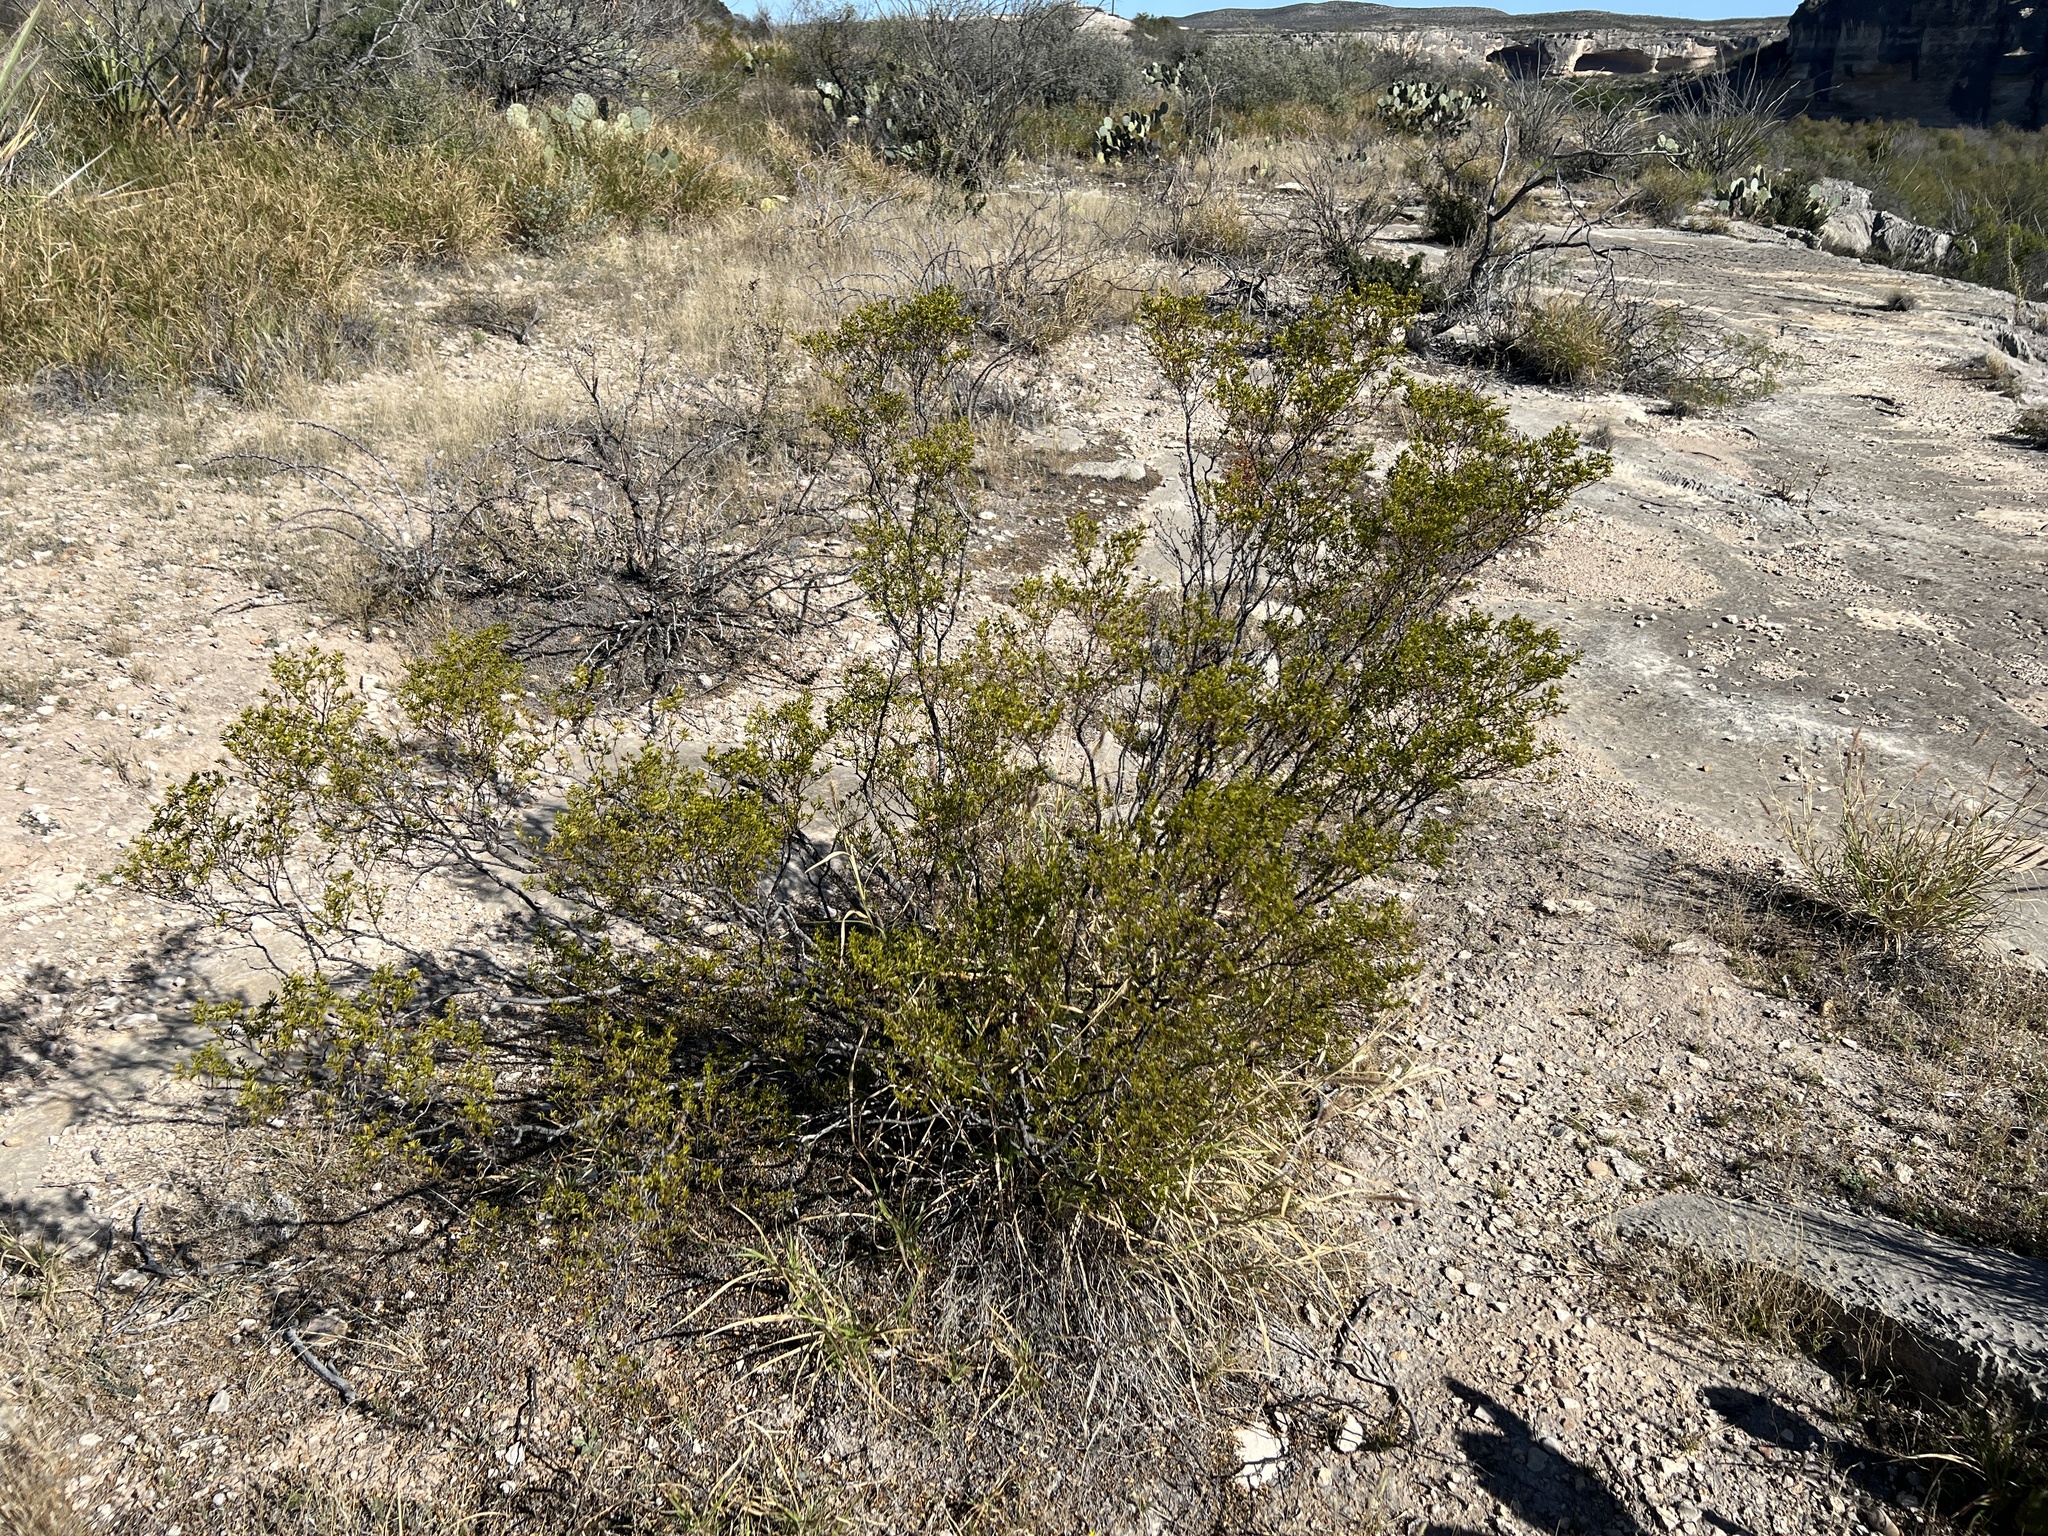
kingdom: Plantae
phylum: Tracheophyta
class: Magnoliopsida
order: Zygophyllales
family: Zygophyllaceae
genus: Larrea
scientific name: Larrea tridentata
